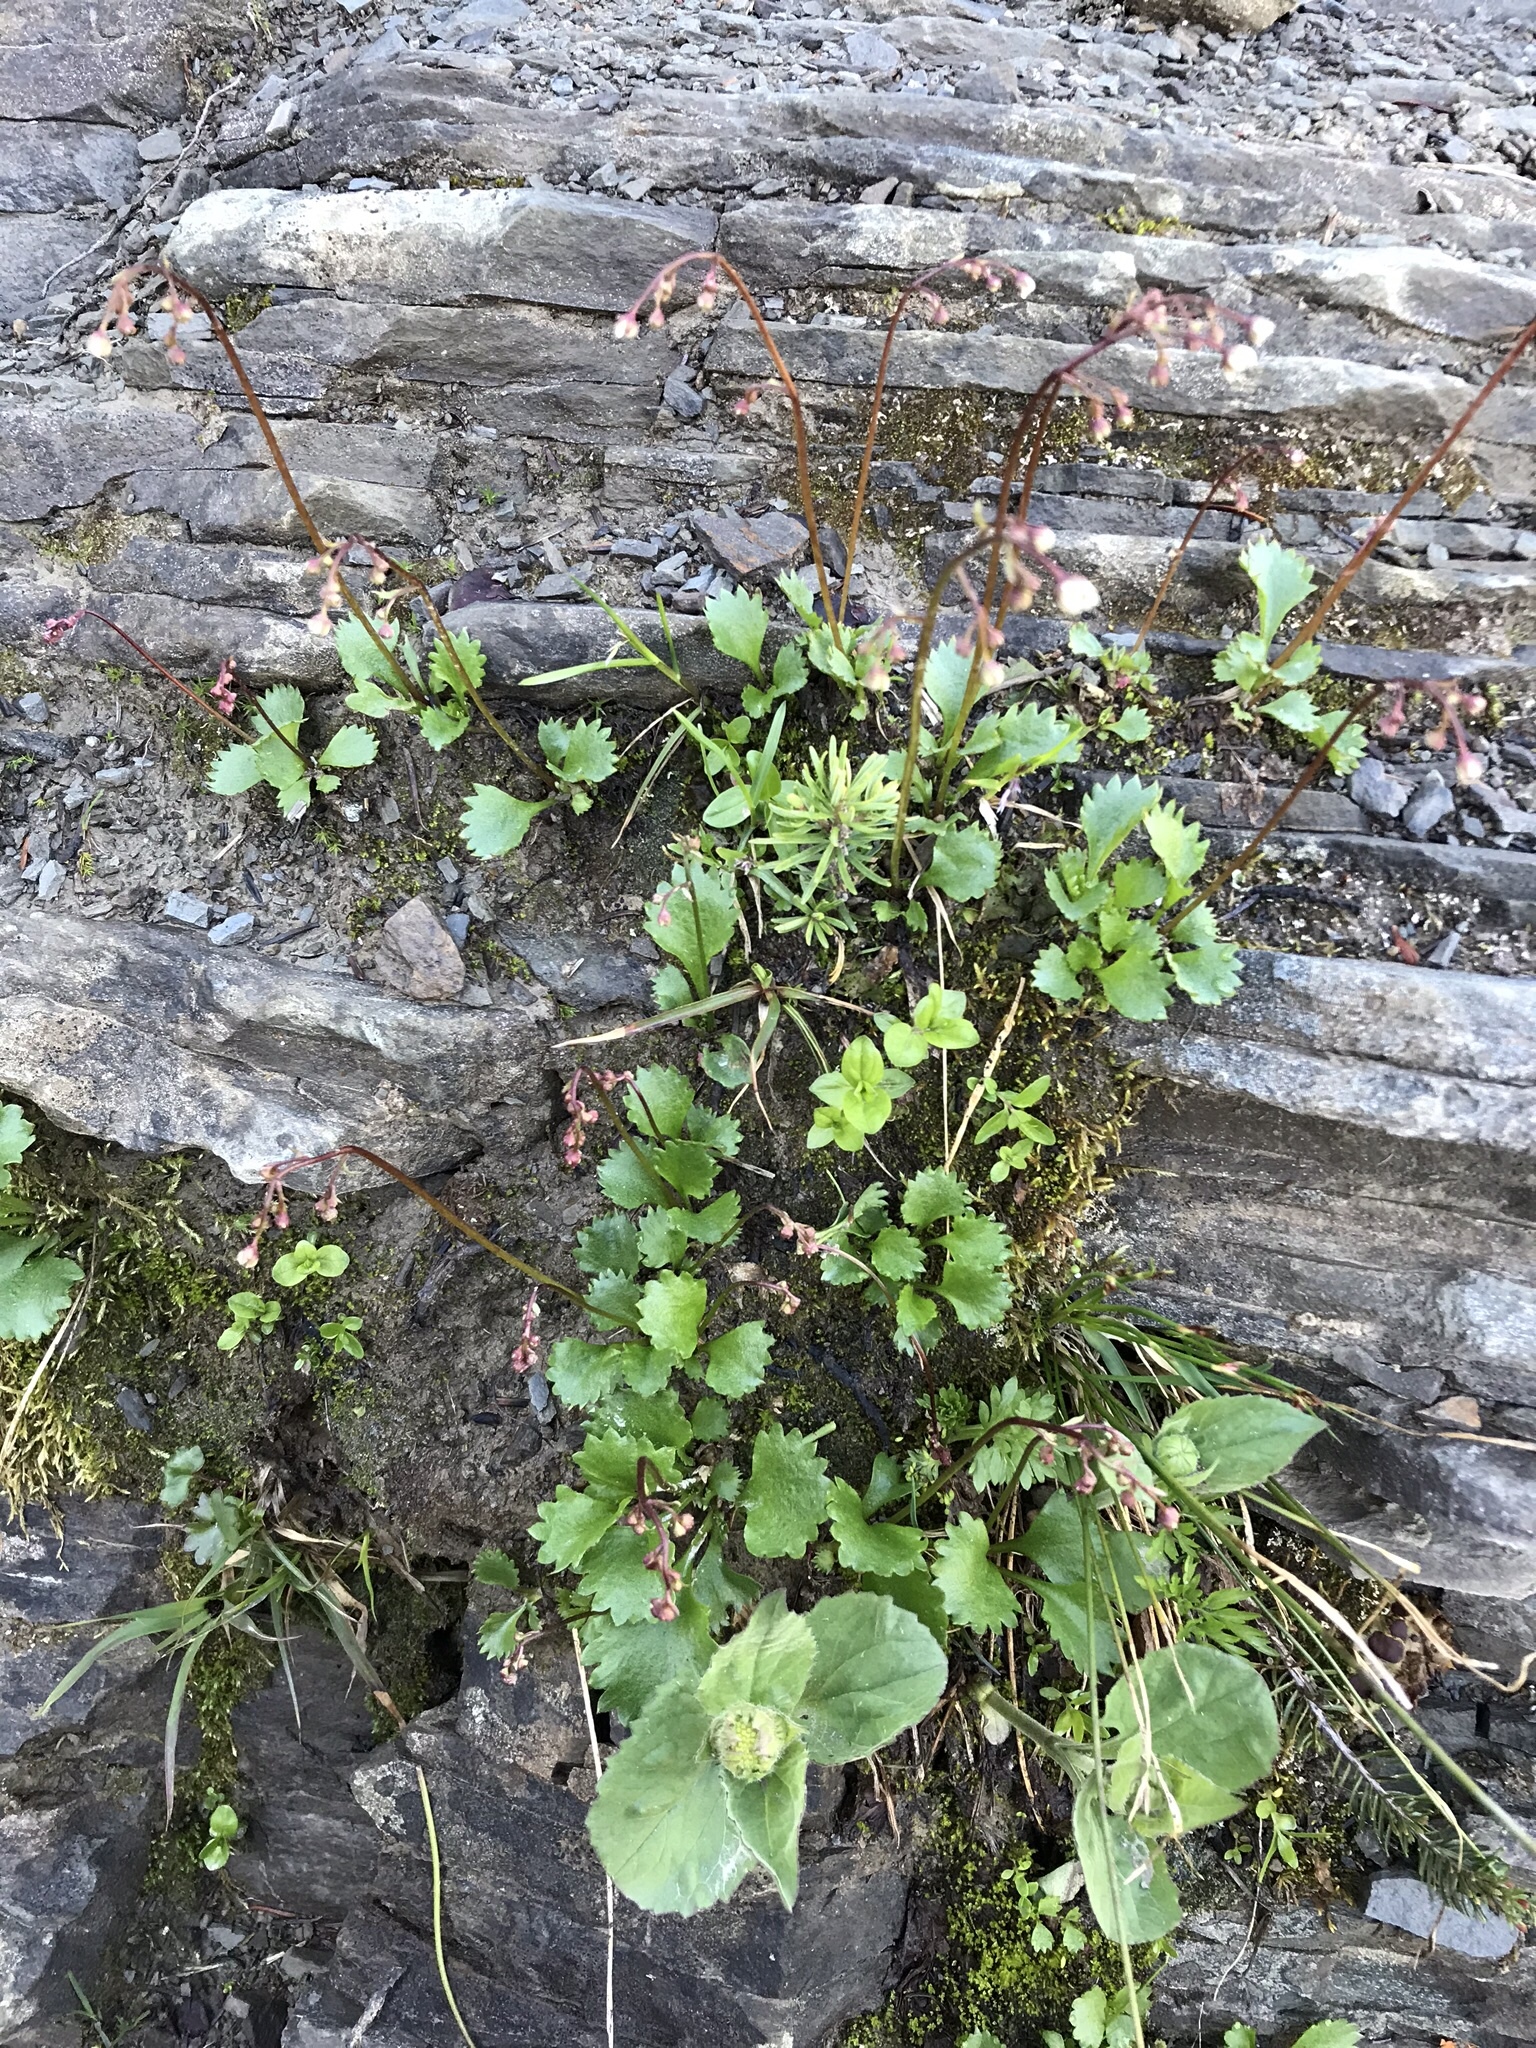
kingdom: Plantae
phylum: Tracheophyta
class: Magnoliopsida
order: Saxifragales
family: Saxifragaceae
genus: Micranthes
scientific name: Micranthes lyallii
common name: Lyall's saxifrage
